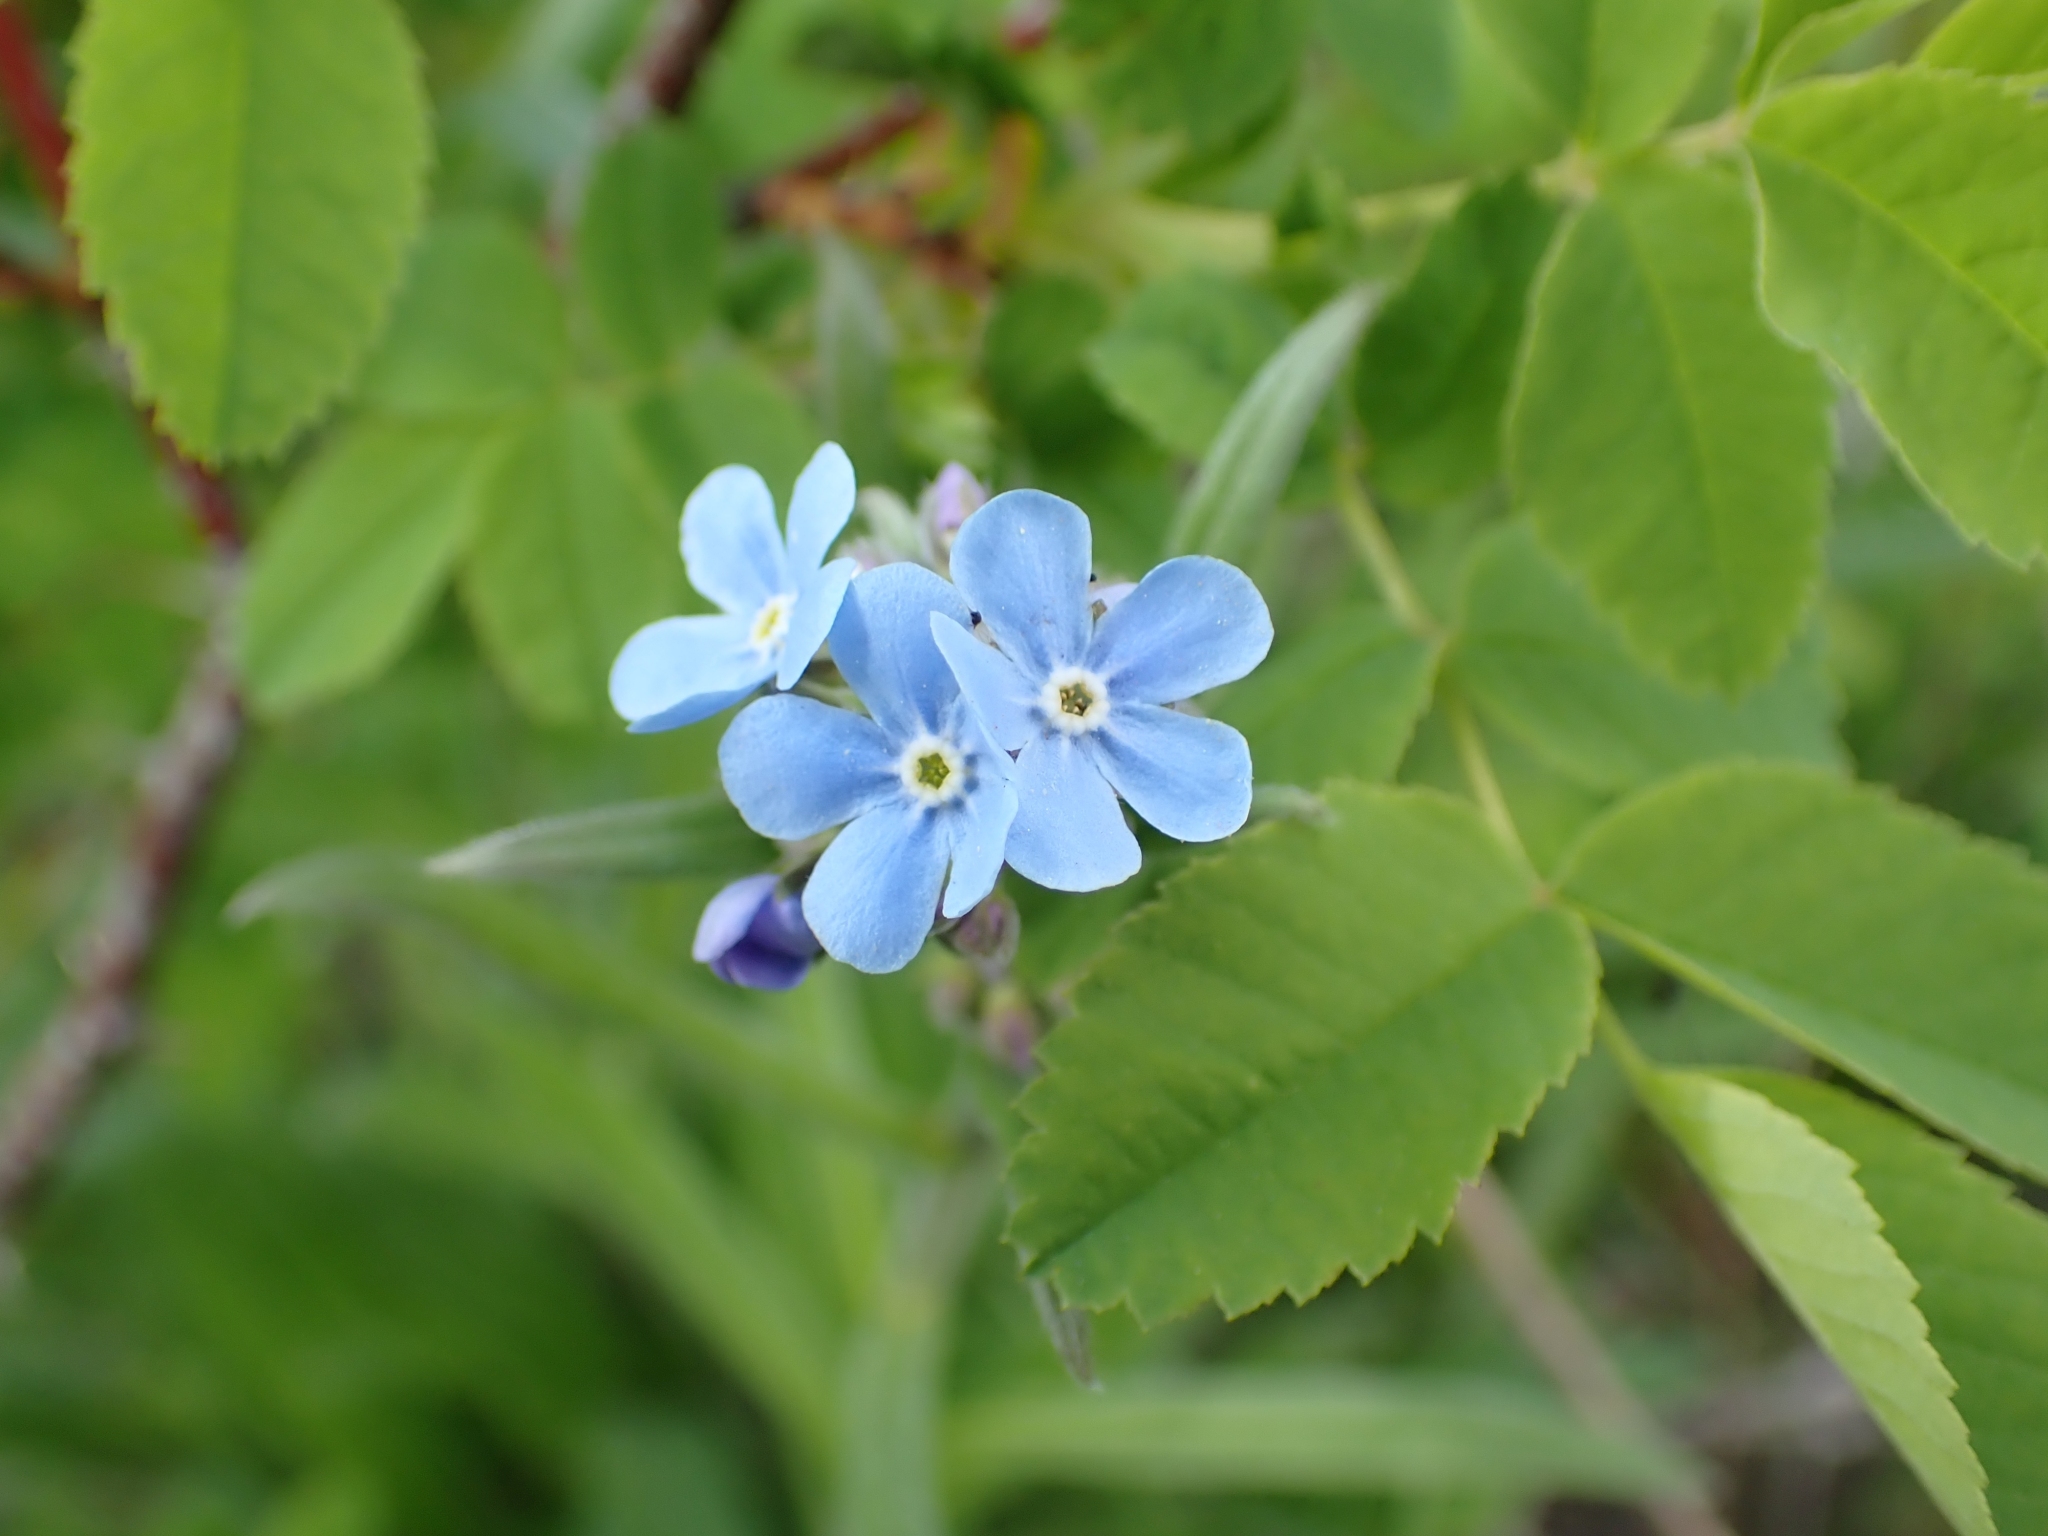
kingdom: Plantae
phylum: Tracheophyta
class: Magnoliopsida
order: Boraginales
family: Boraginaceae
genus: Hackelia
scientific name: Hackelia micrantha
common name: Meadow stickseed
